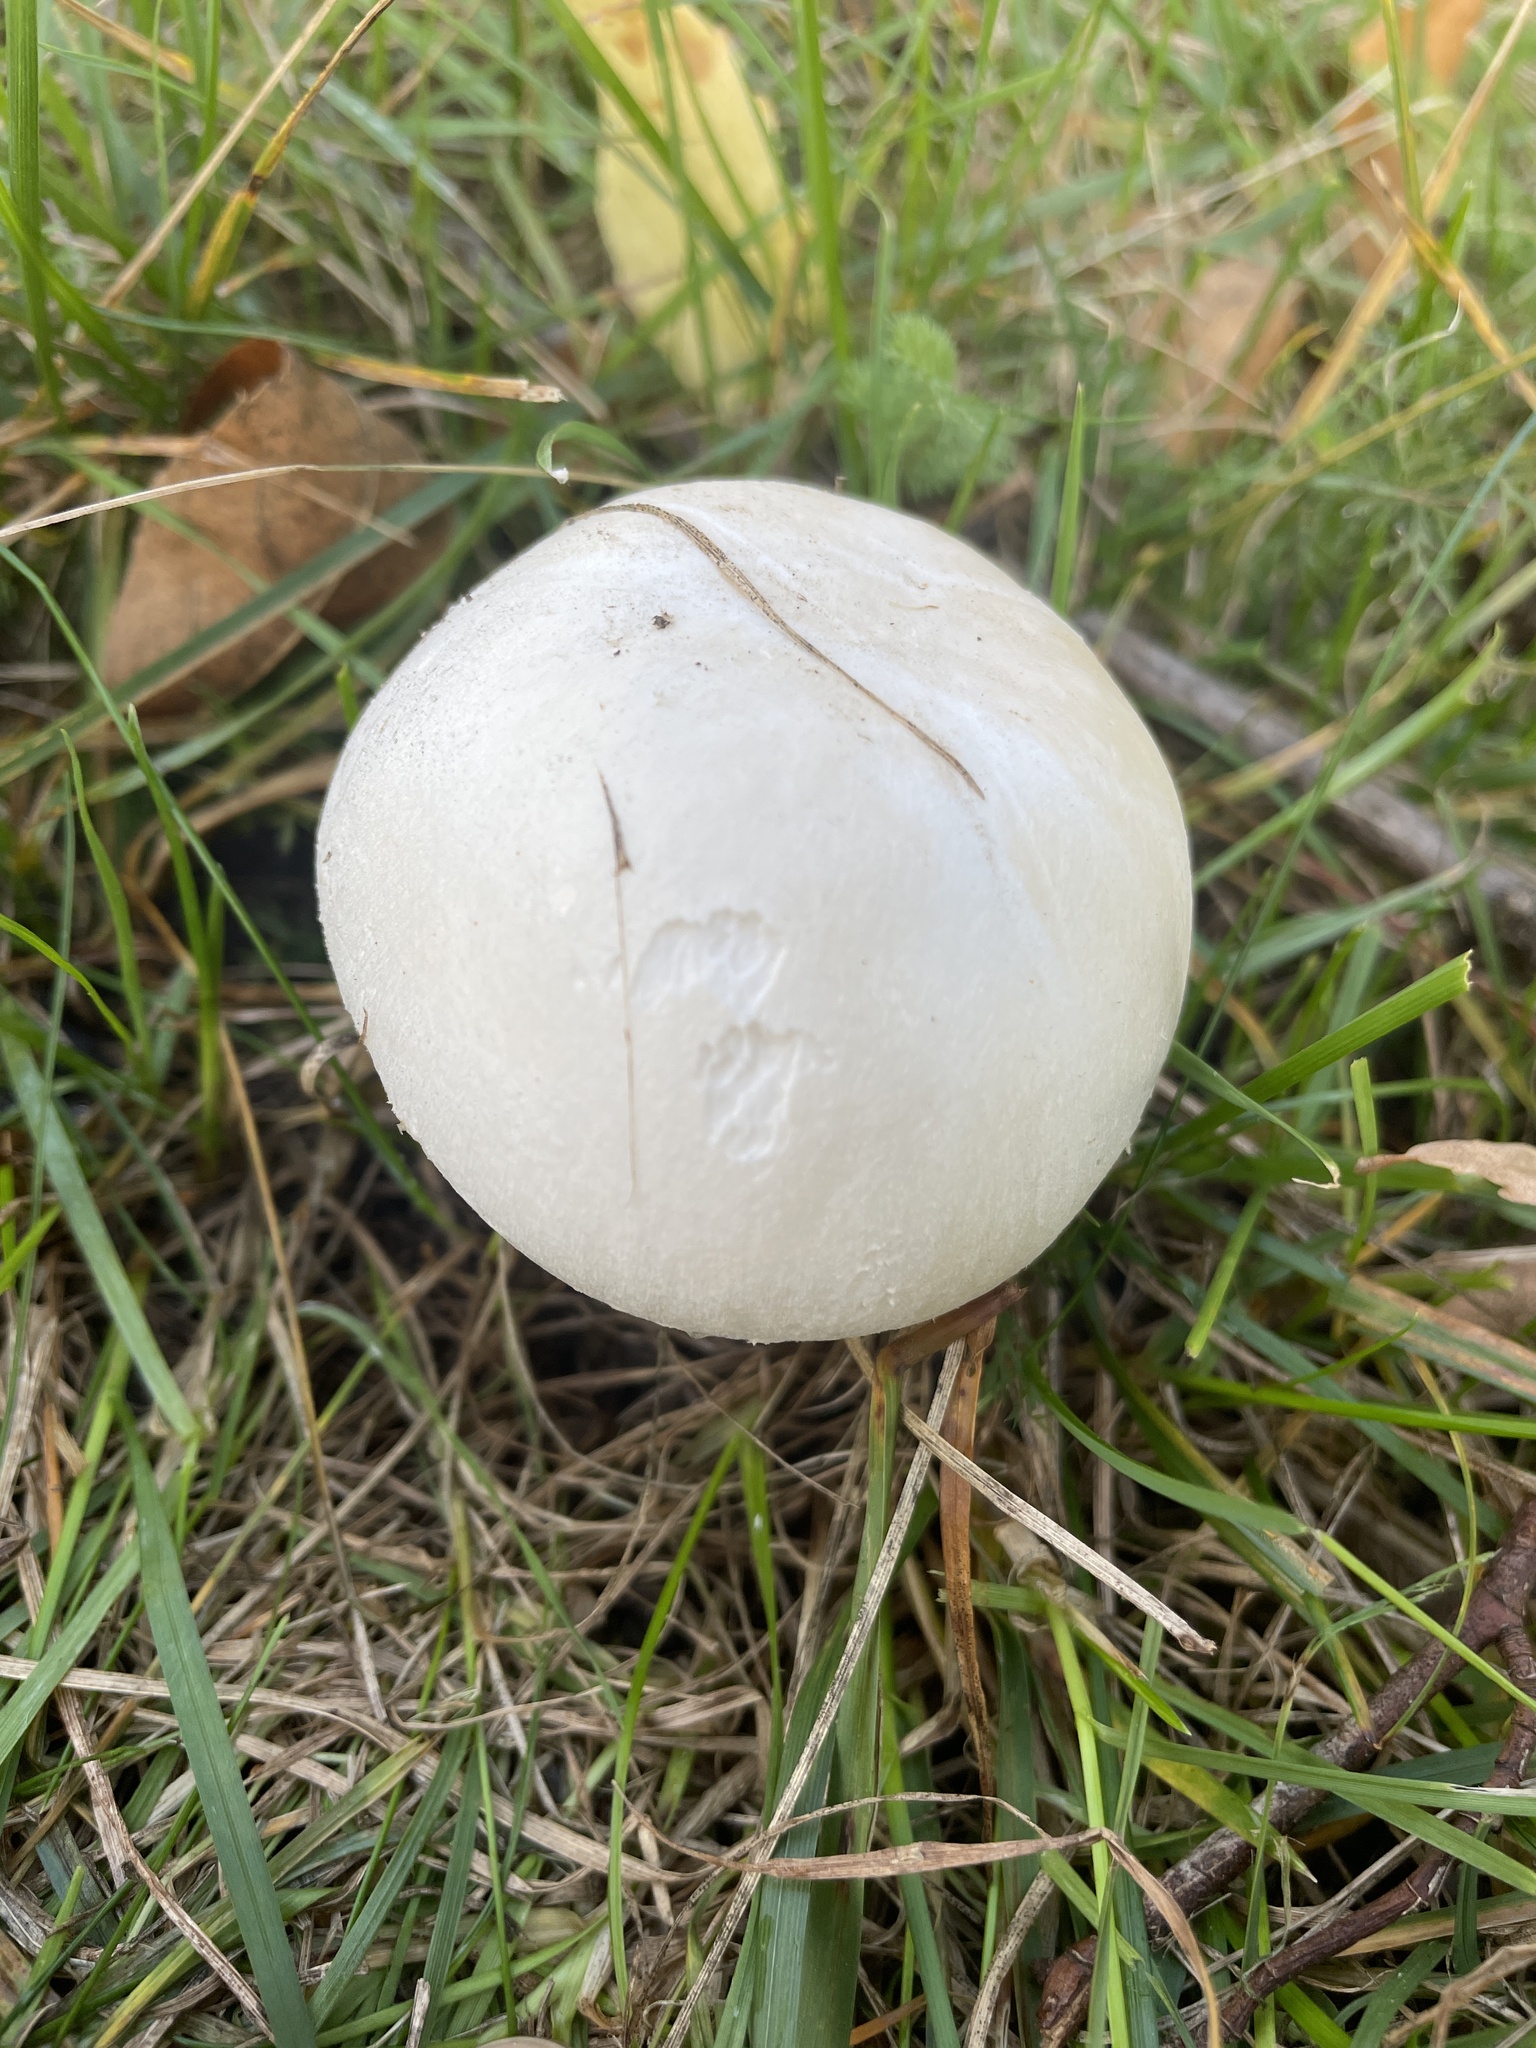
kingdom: Fungi
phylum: Basidiomycota
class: Agaricomycetes
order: Agaricales
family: Agaricaceae
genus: Agaricus
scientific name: Agaricus
